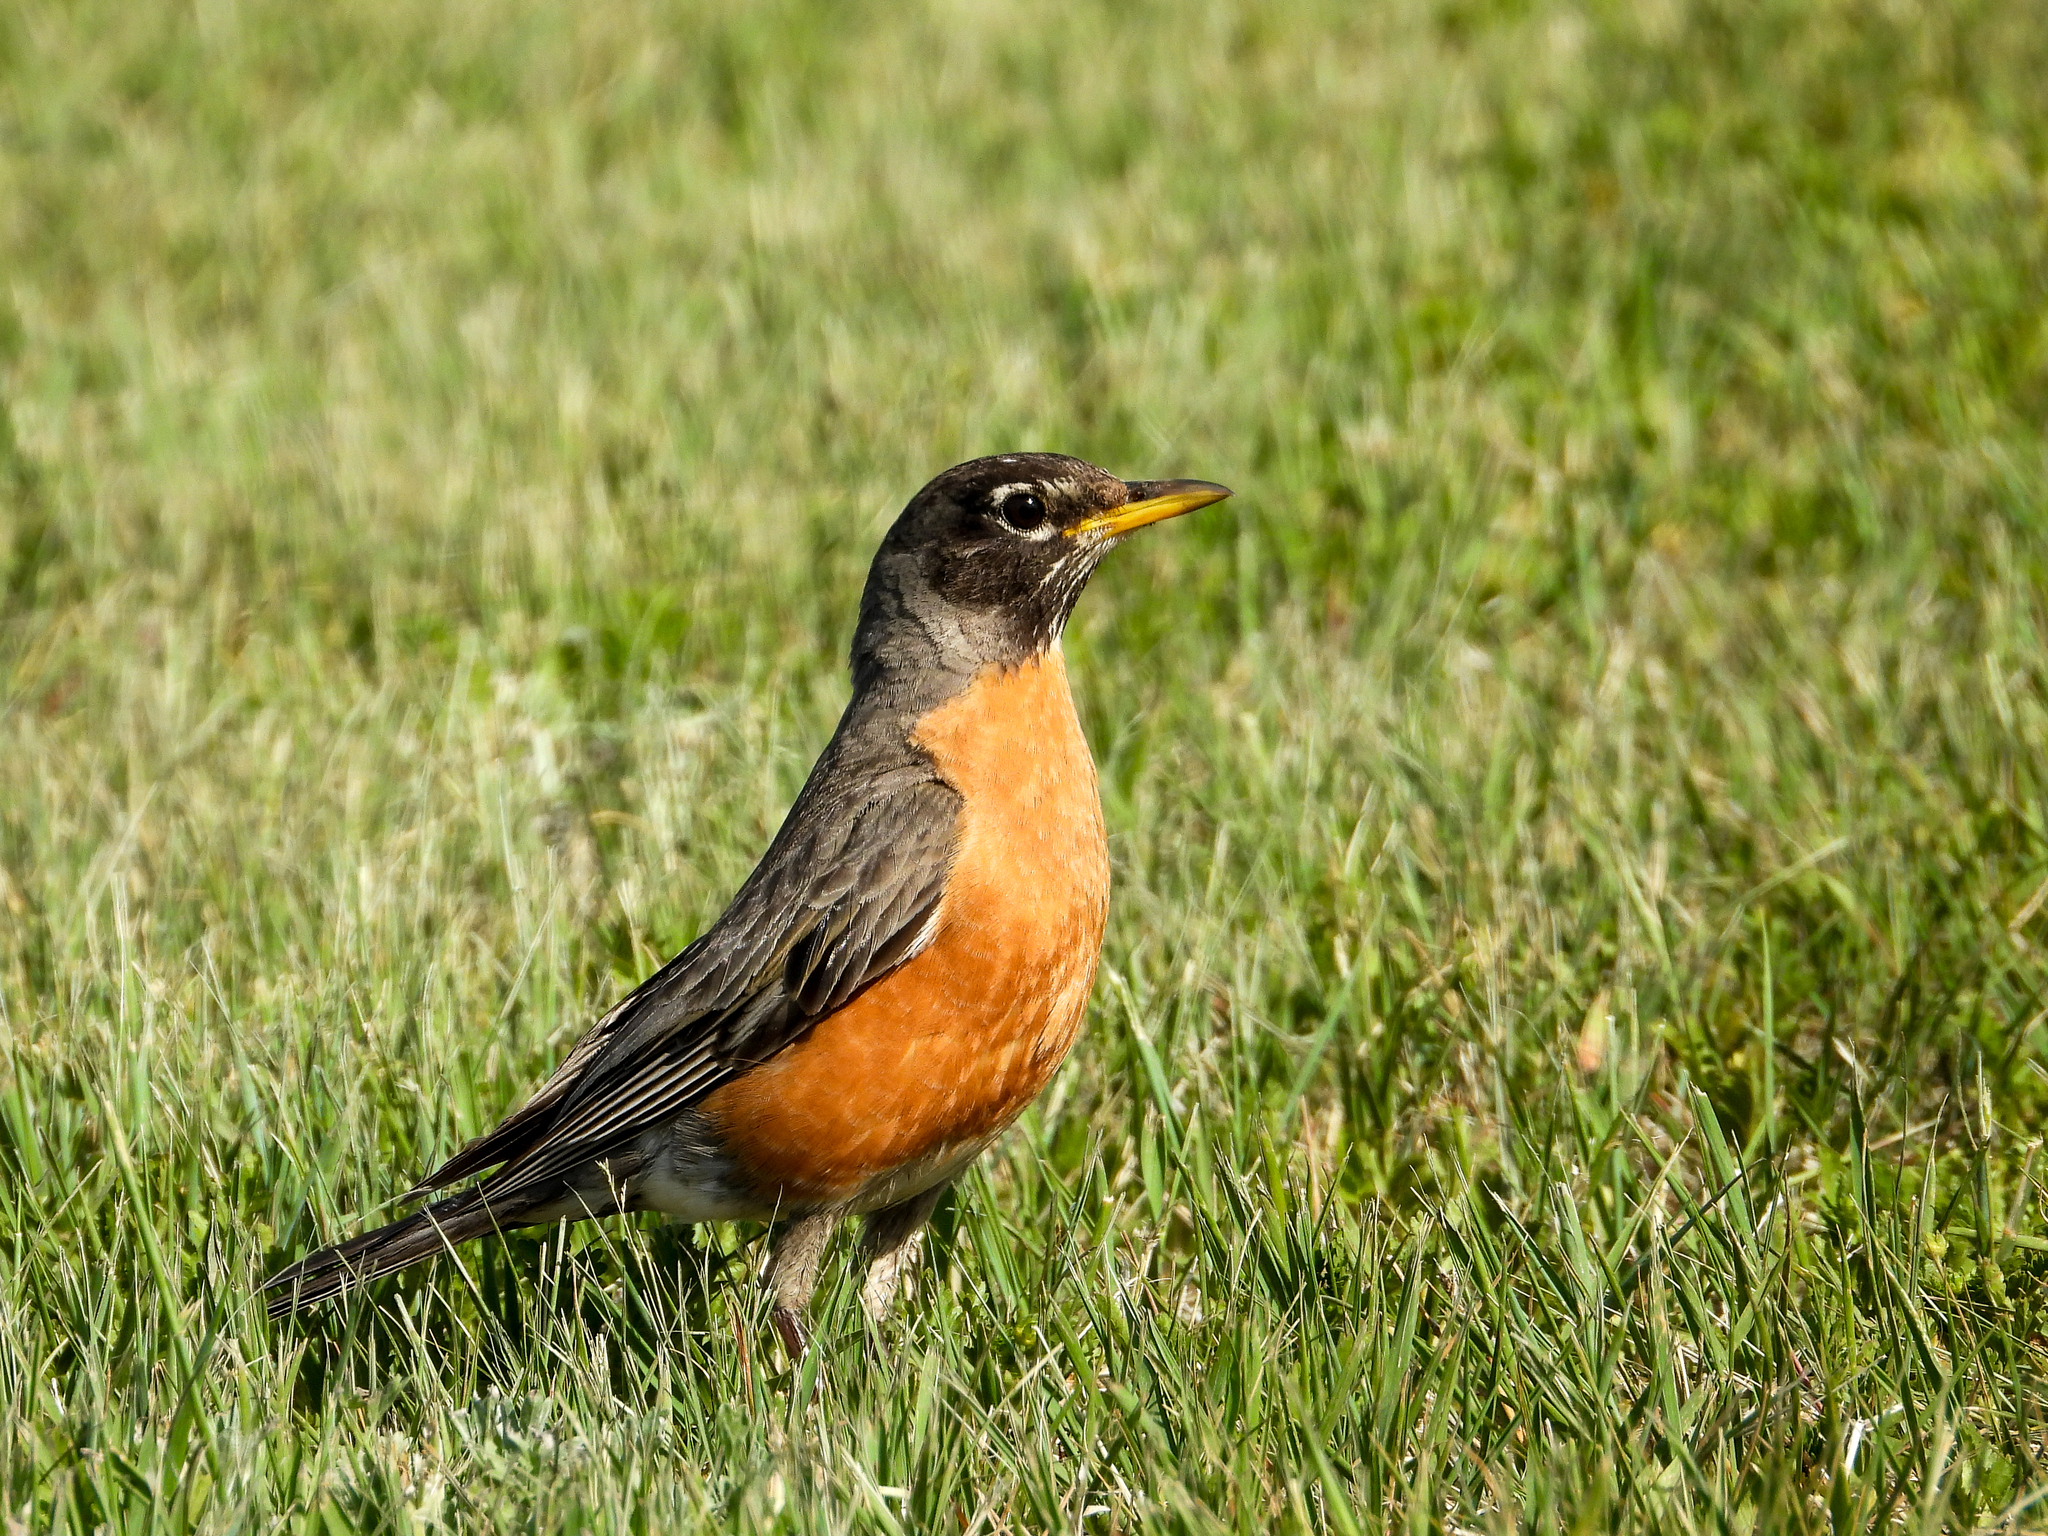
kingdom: Animalia
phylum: Chordata
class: Aves
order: Passeriformes
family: Turdidae
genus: Turdus
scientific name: Turdus migratorius
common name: American robin
